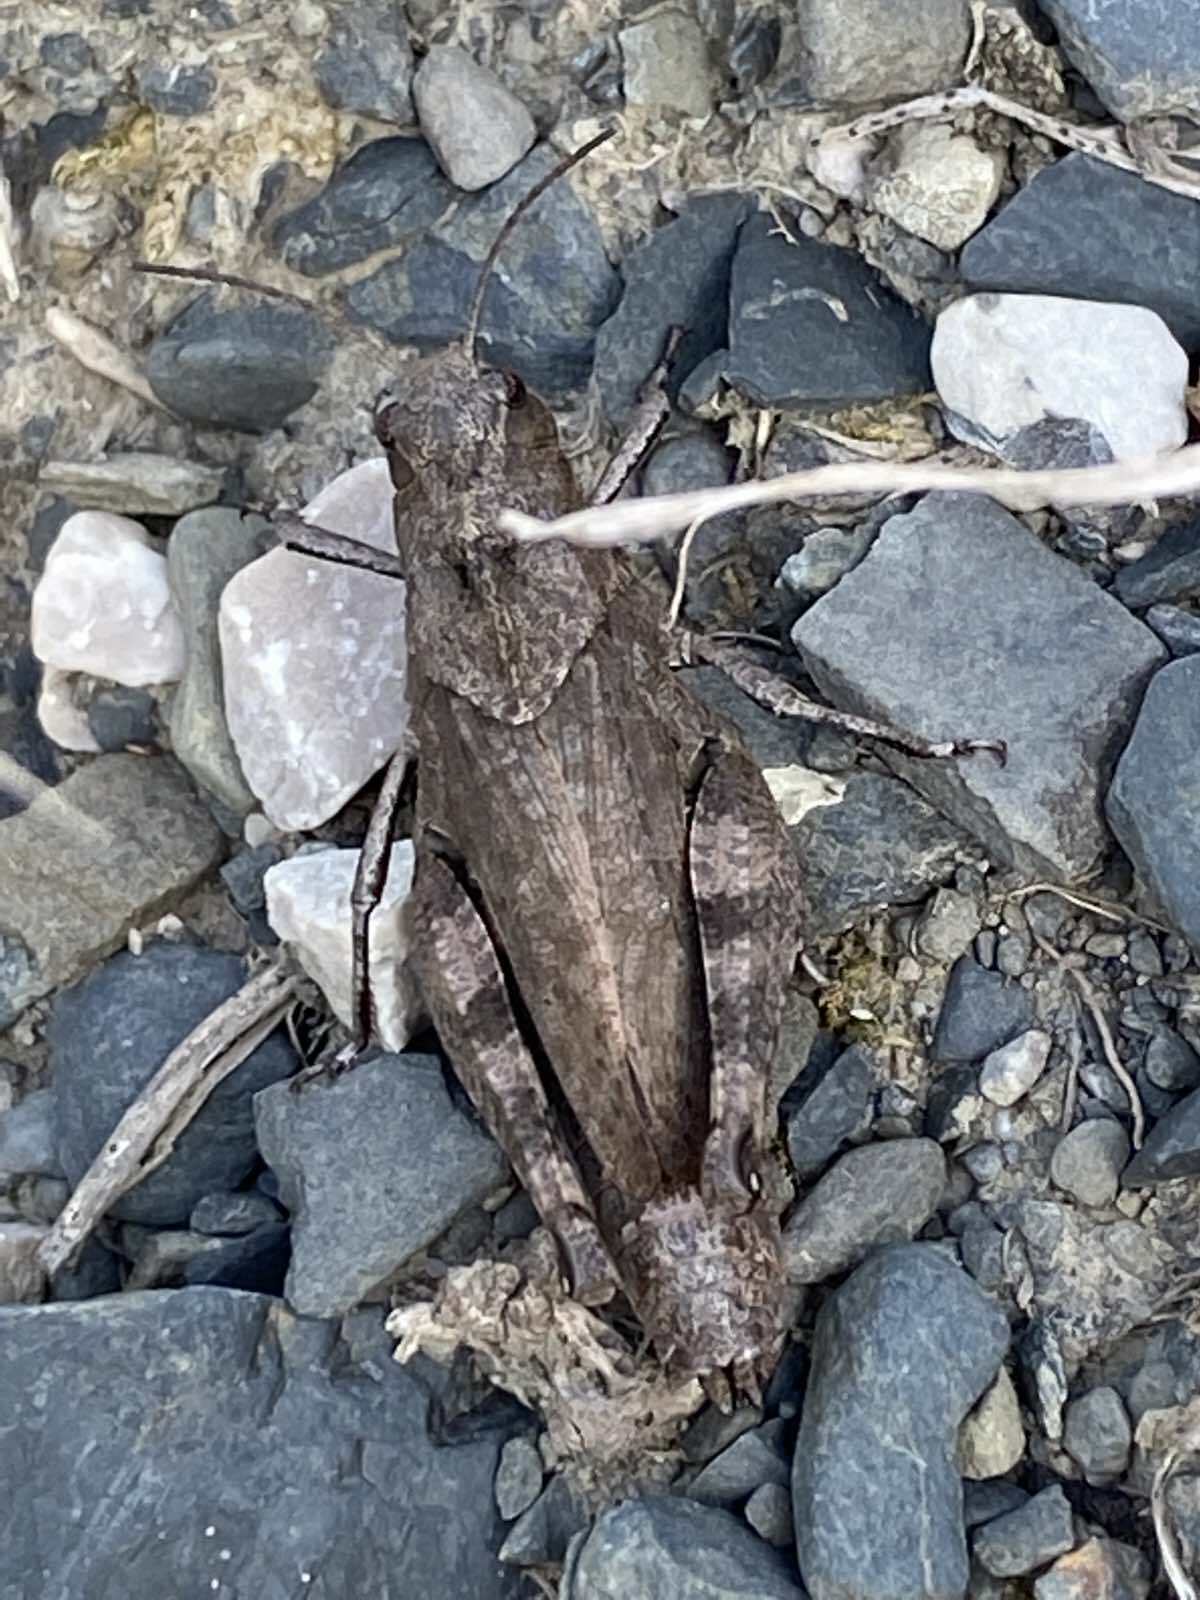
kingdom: Animalia
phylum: Arthropoda
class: Insecta
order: Orthoptera
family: Acrididae
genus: Psophus
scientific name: Psophus stridulus
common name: Rattle grasshopper
